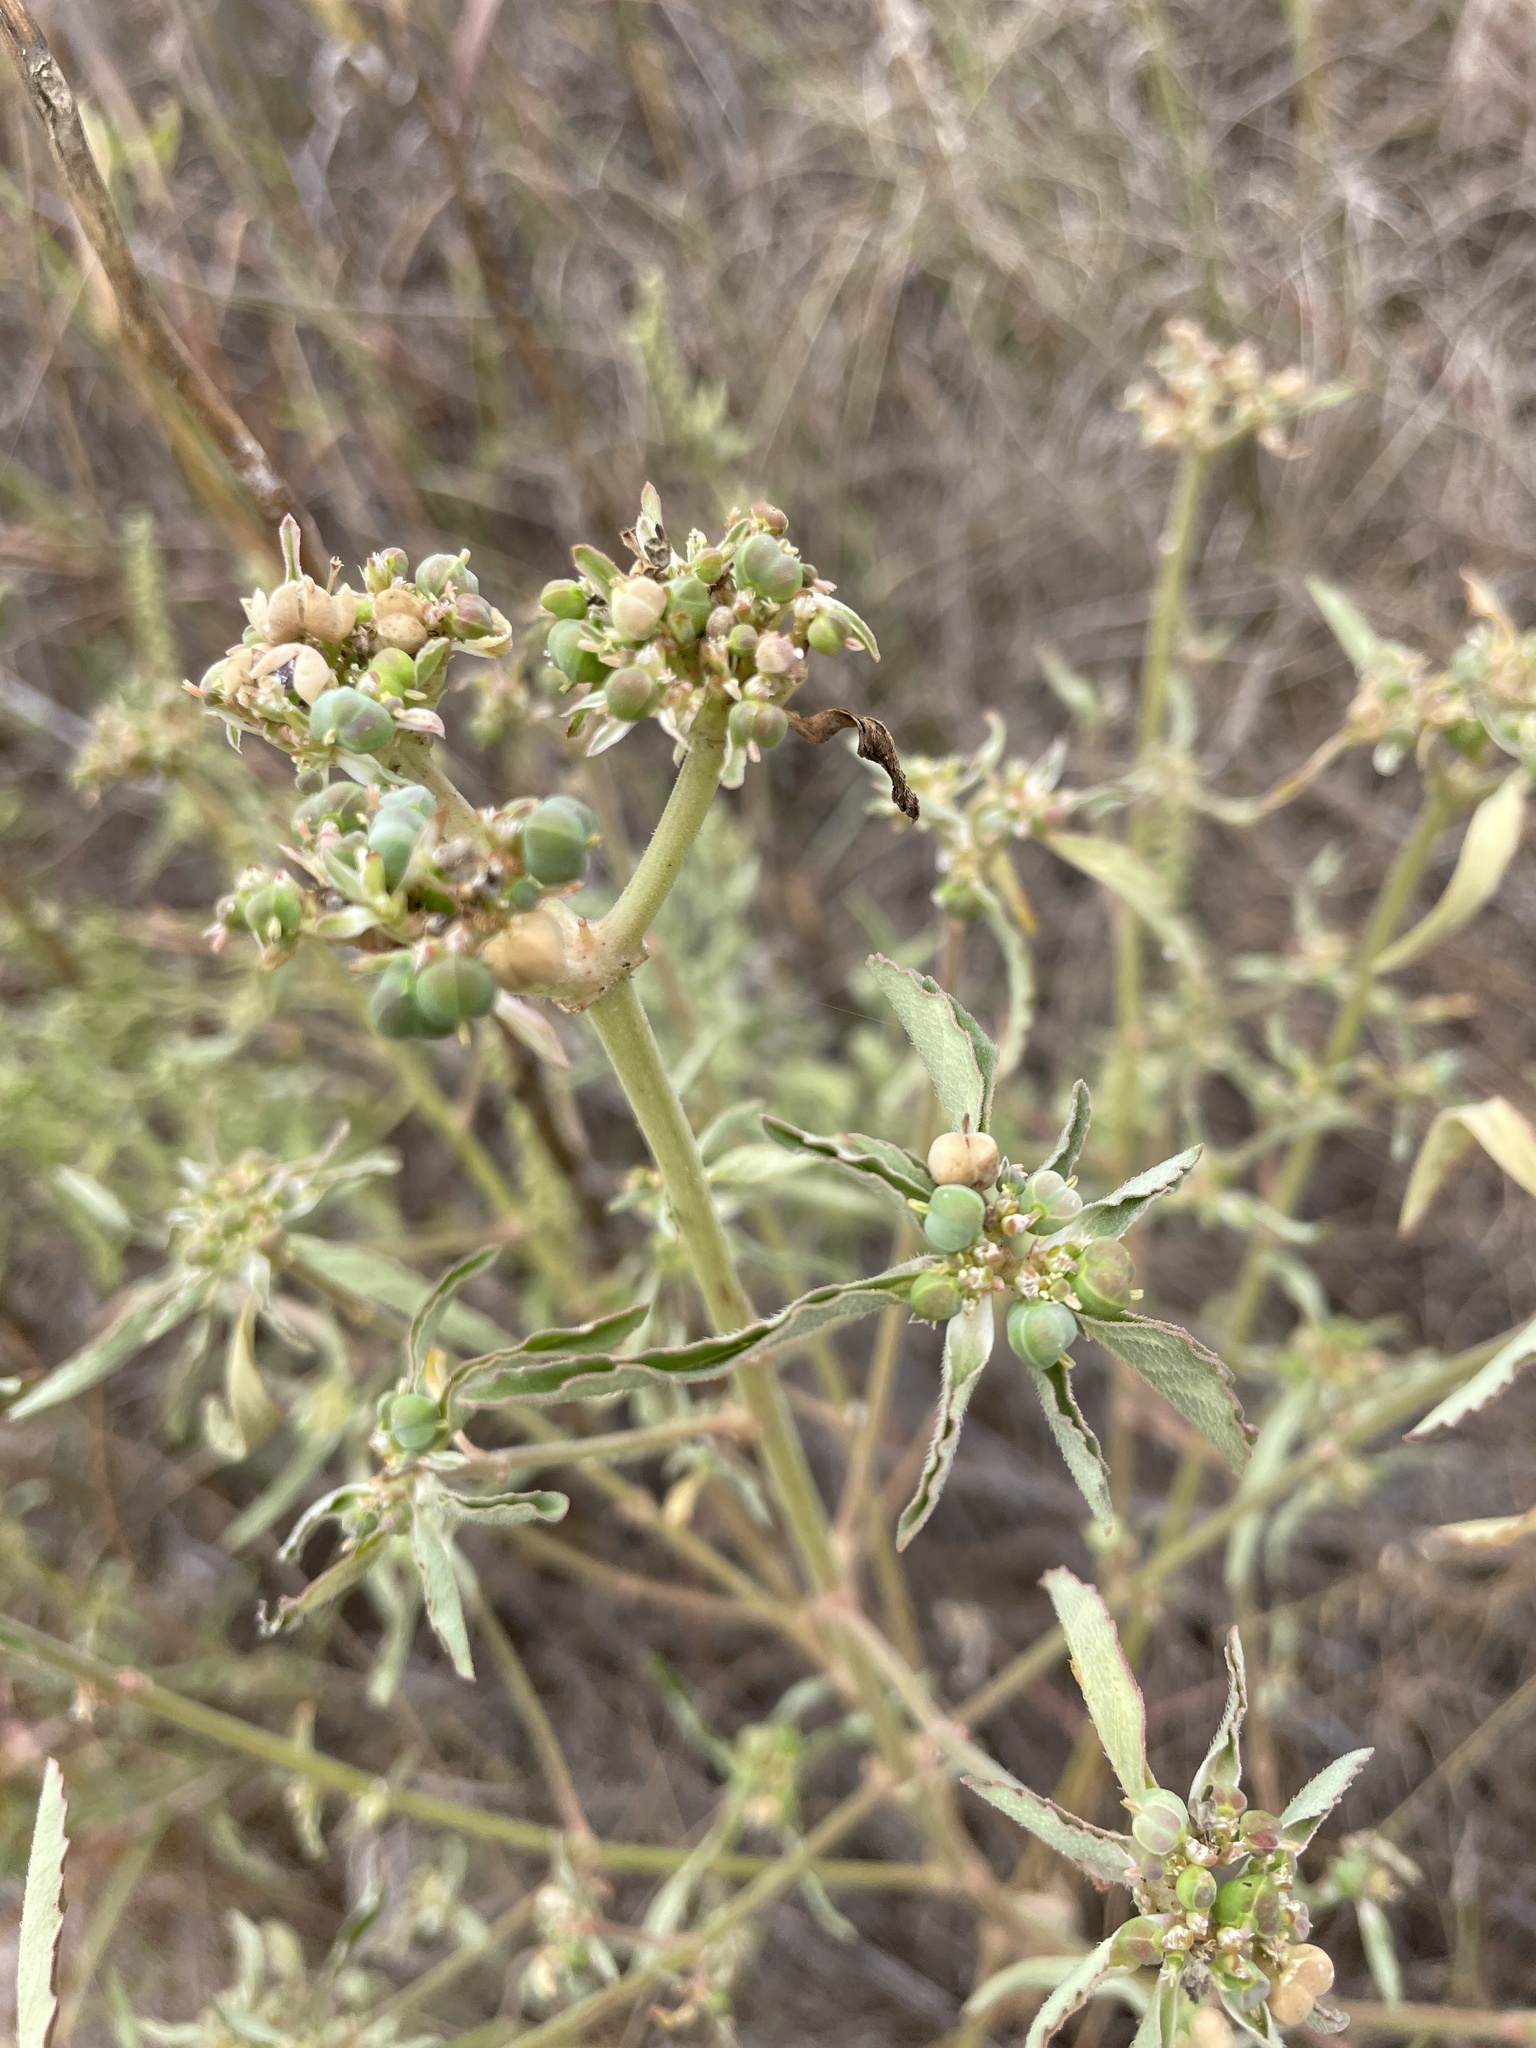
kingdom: Plantae
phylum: Tracheophyta
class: Magnoliopsida
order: Malpighiales
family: Euphorbiaceae
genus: Euphorbia
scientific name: Euphorbia davidii
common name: David's spurge
